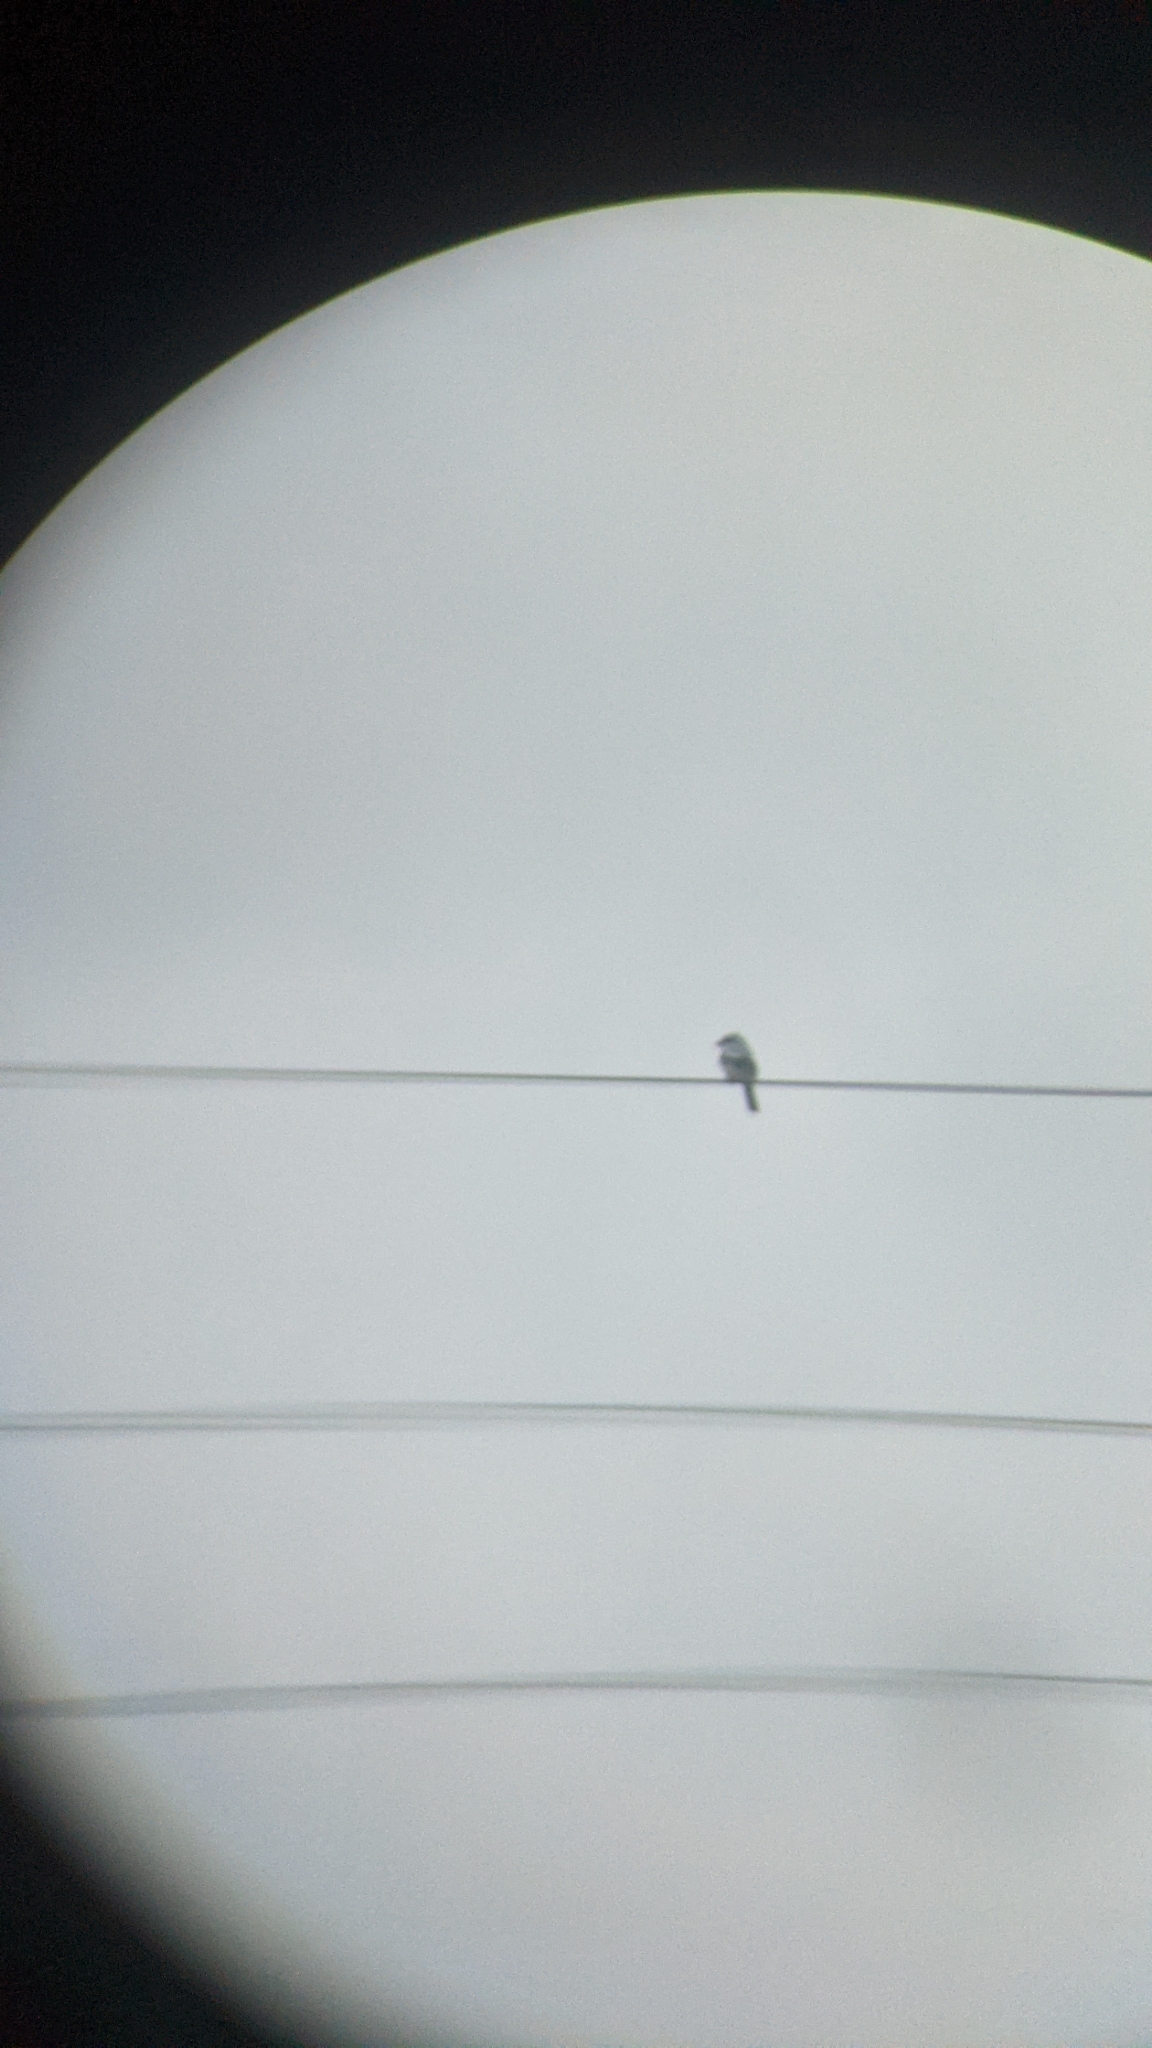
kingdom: Animalia
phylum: Chordata
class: Aves
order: Passeriformes
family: Laniidae
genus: Lanius
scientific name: Lanius excubitor
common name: Great grey shrike
